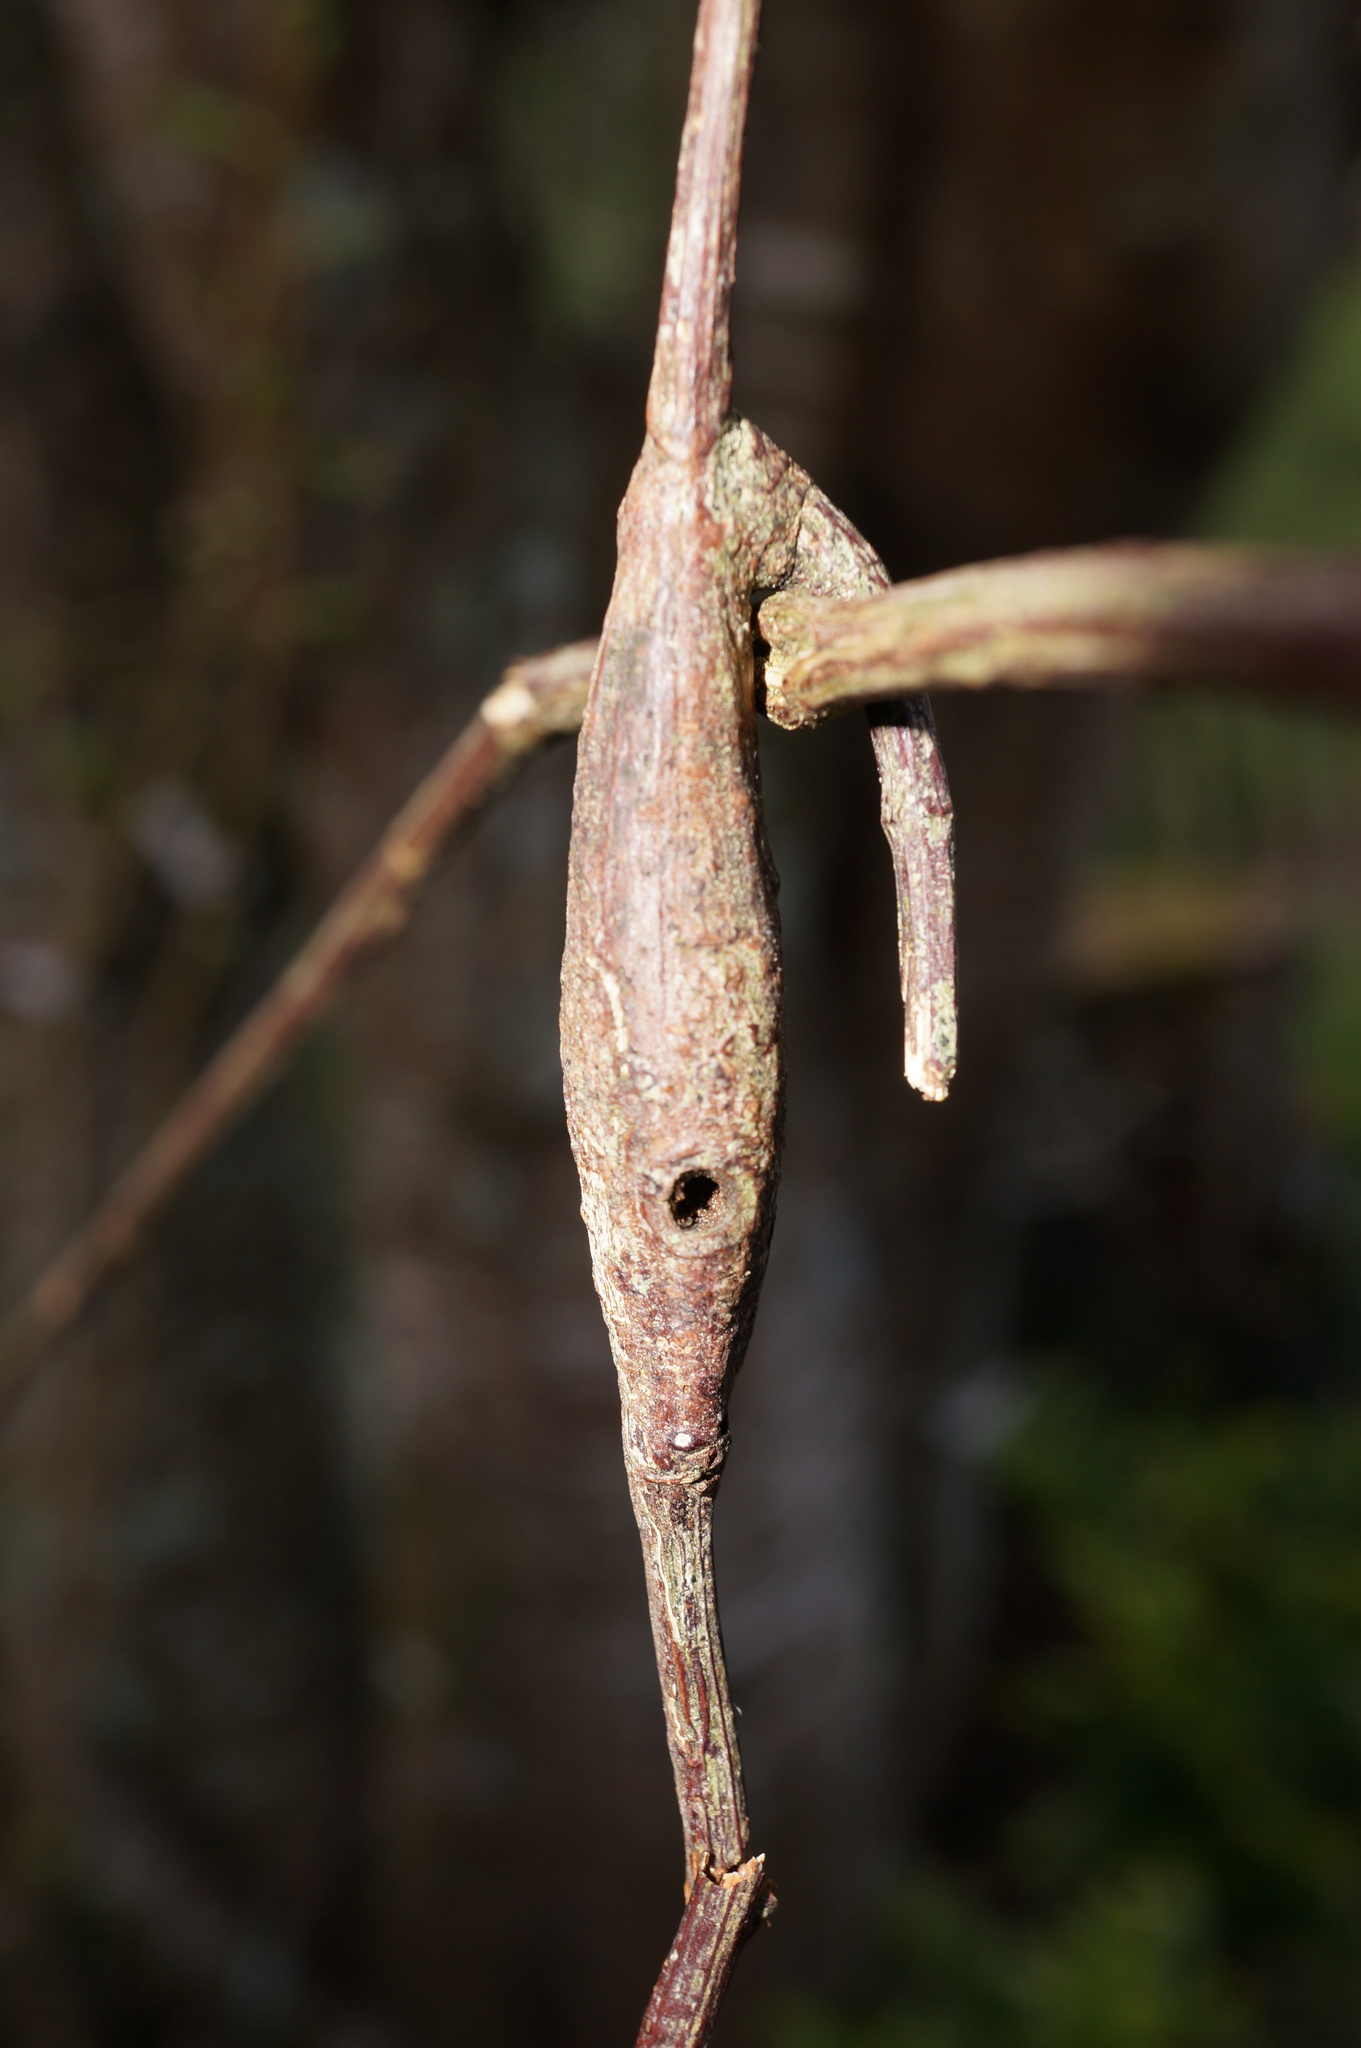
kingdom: Animalia
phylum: Arthropoda
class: Insecta
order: Lepidoptera
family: Thyrididae
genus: Morova
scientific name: Morova subfasciata
